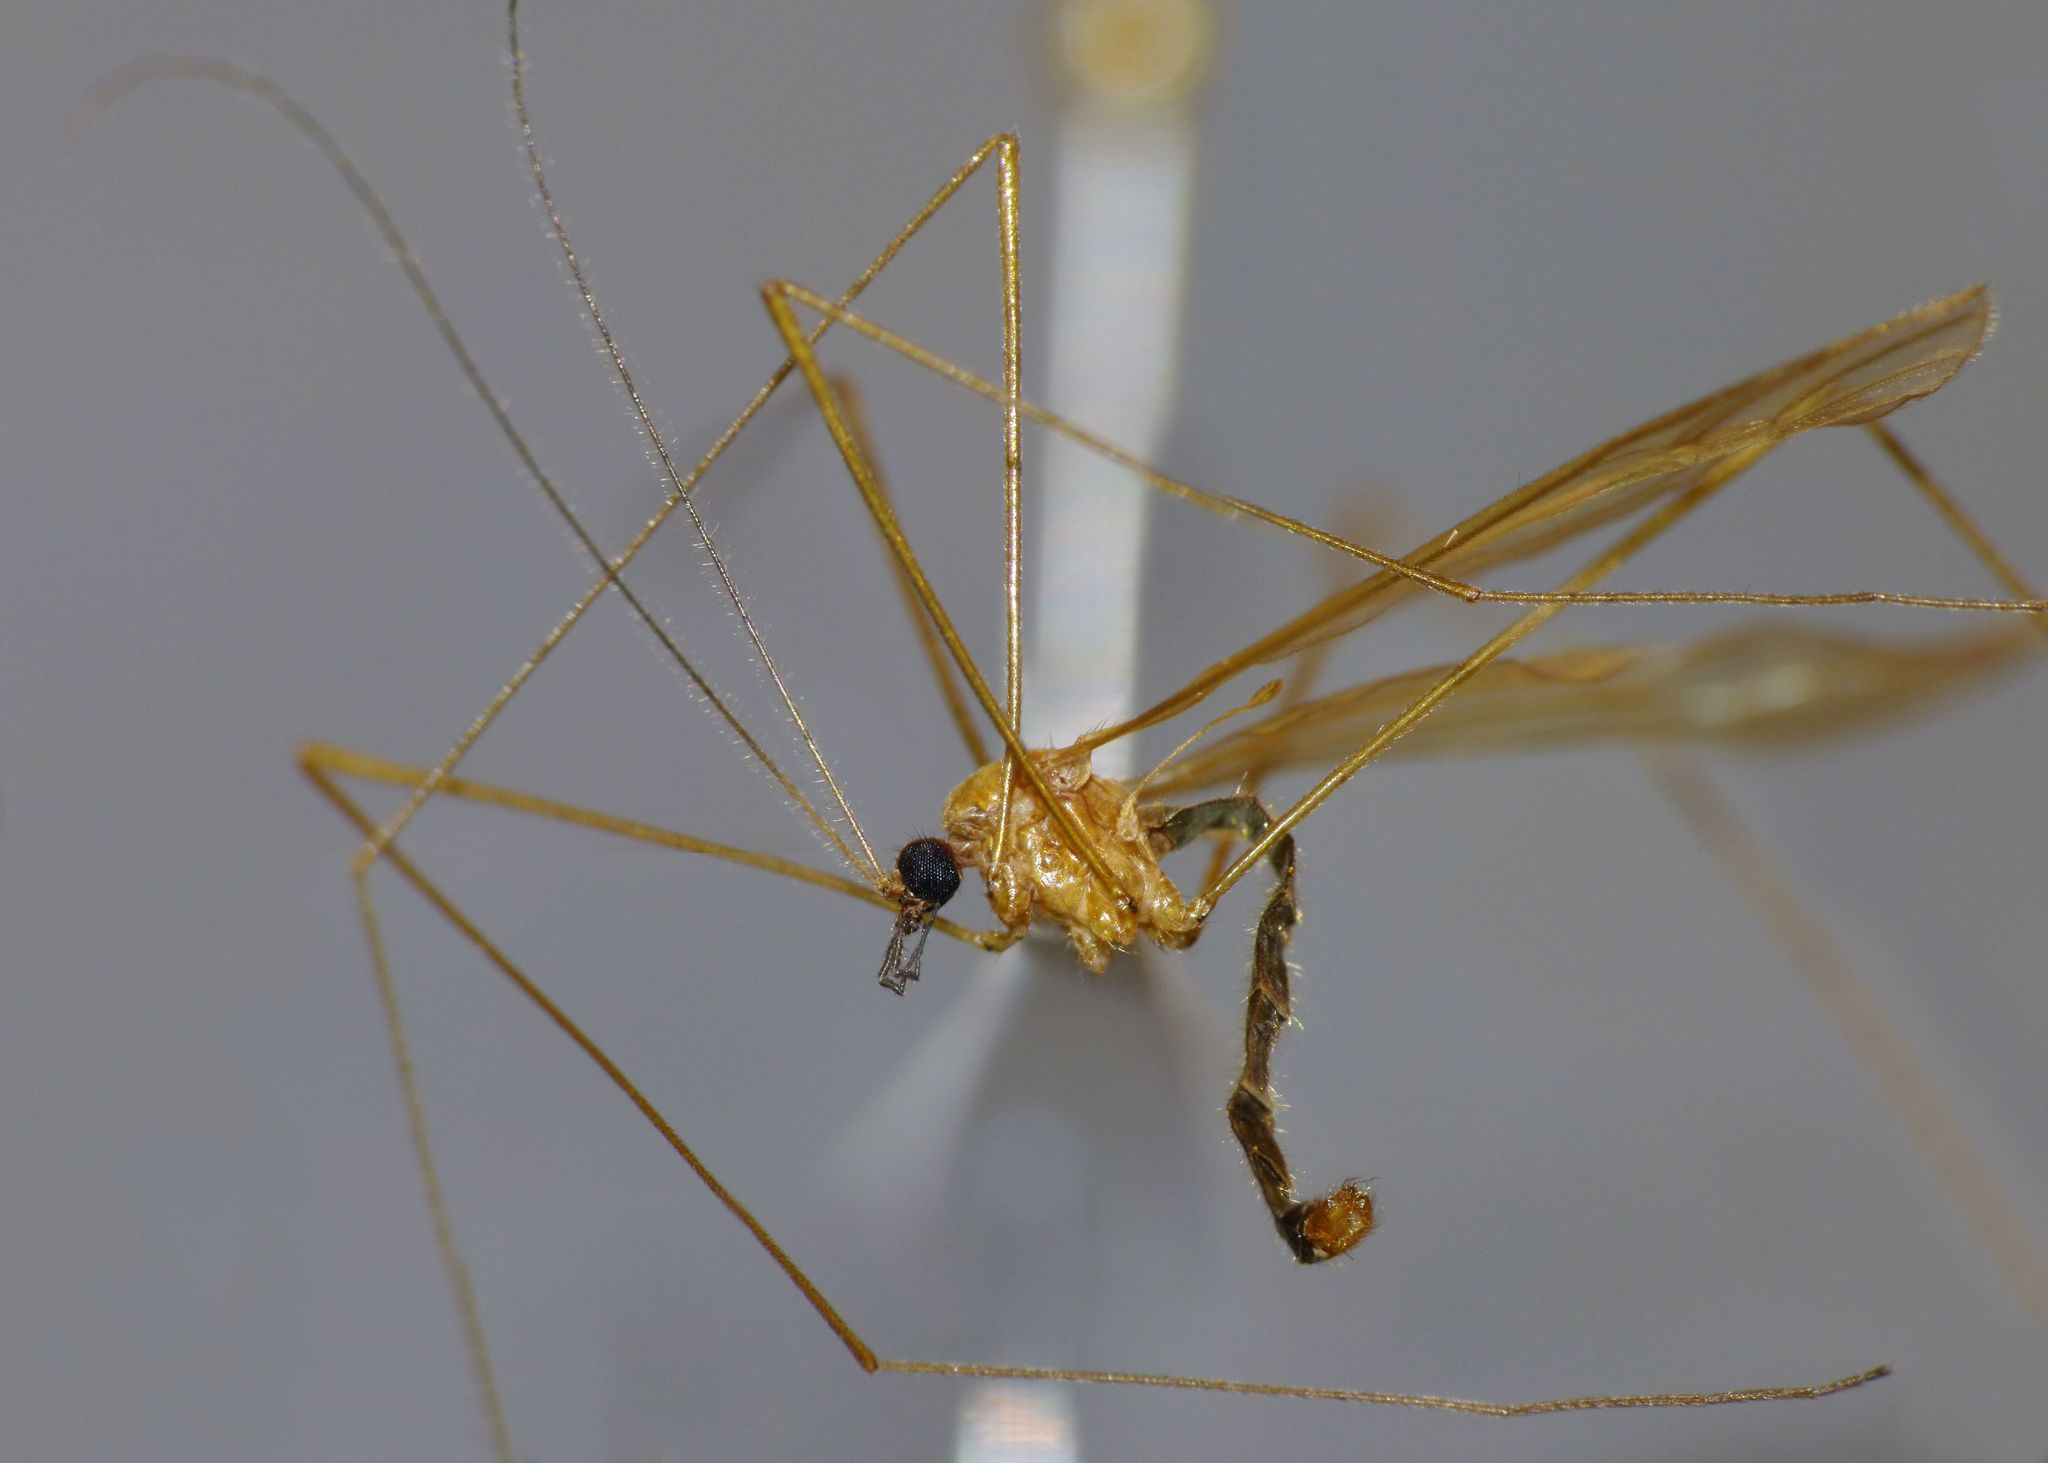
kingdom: Animalia
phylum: Arthropoda
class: Insecta
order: Diptera
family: Limoniidae
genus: Atarba
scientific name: Atarba eluta
